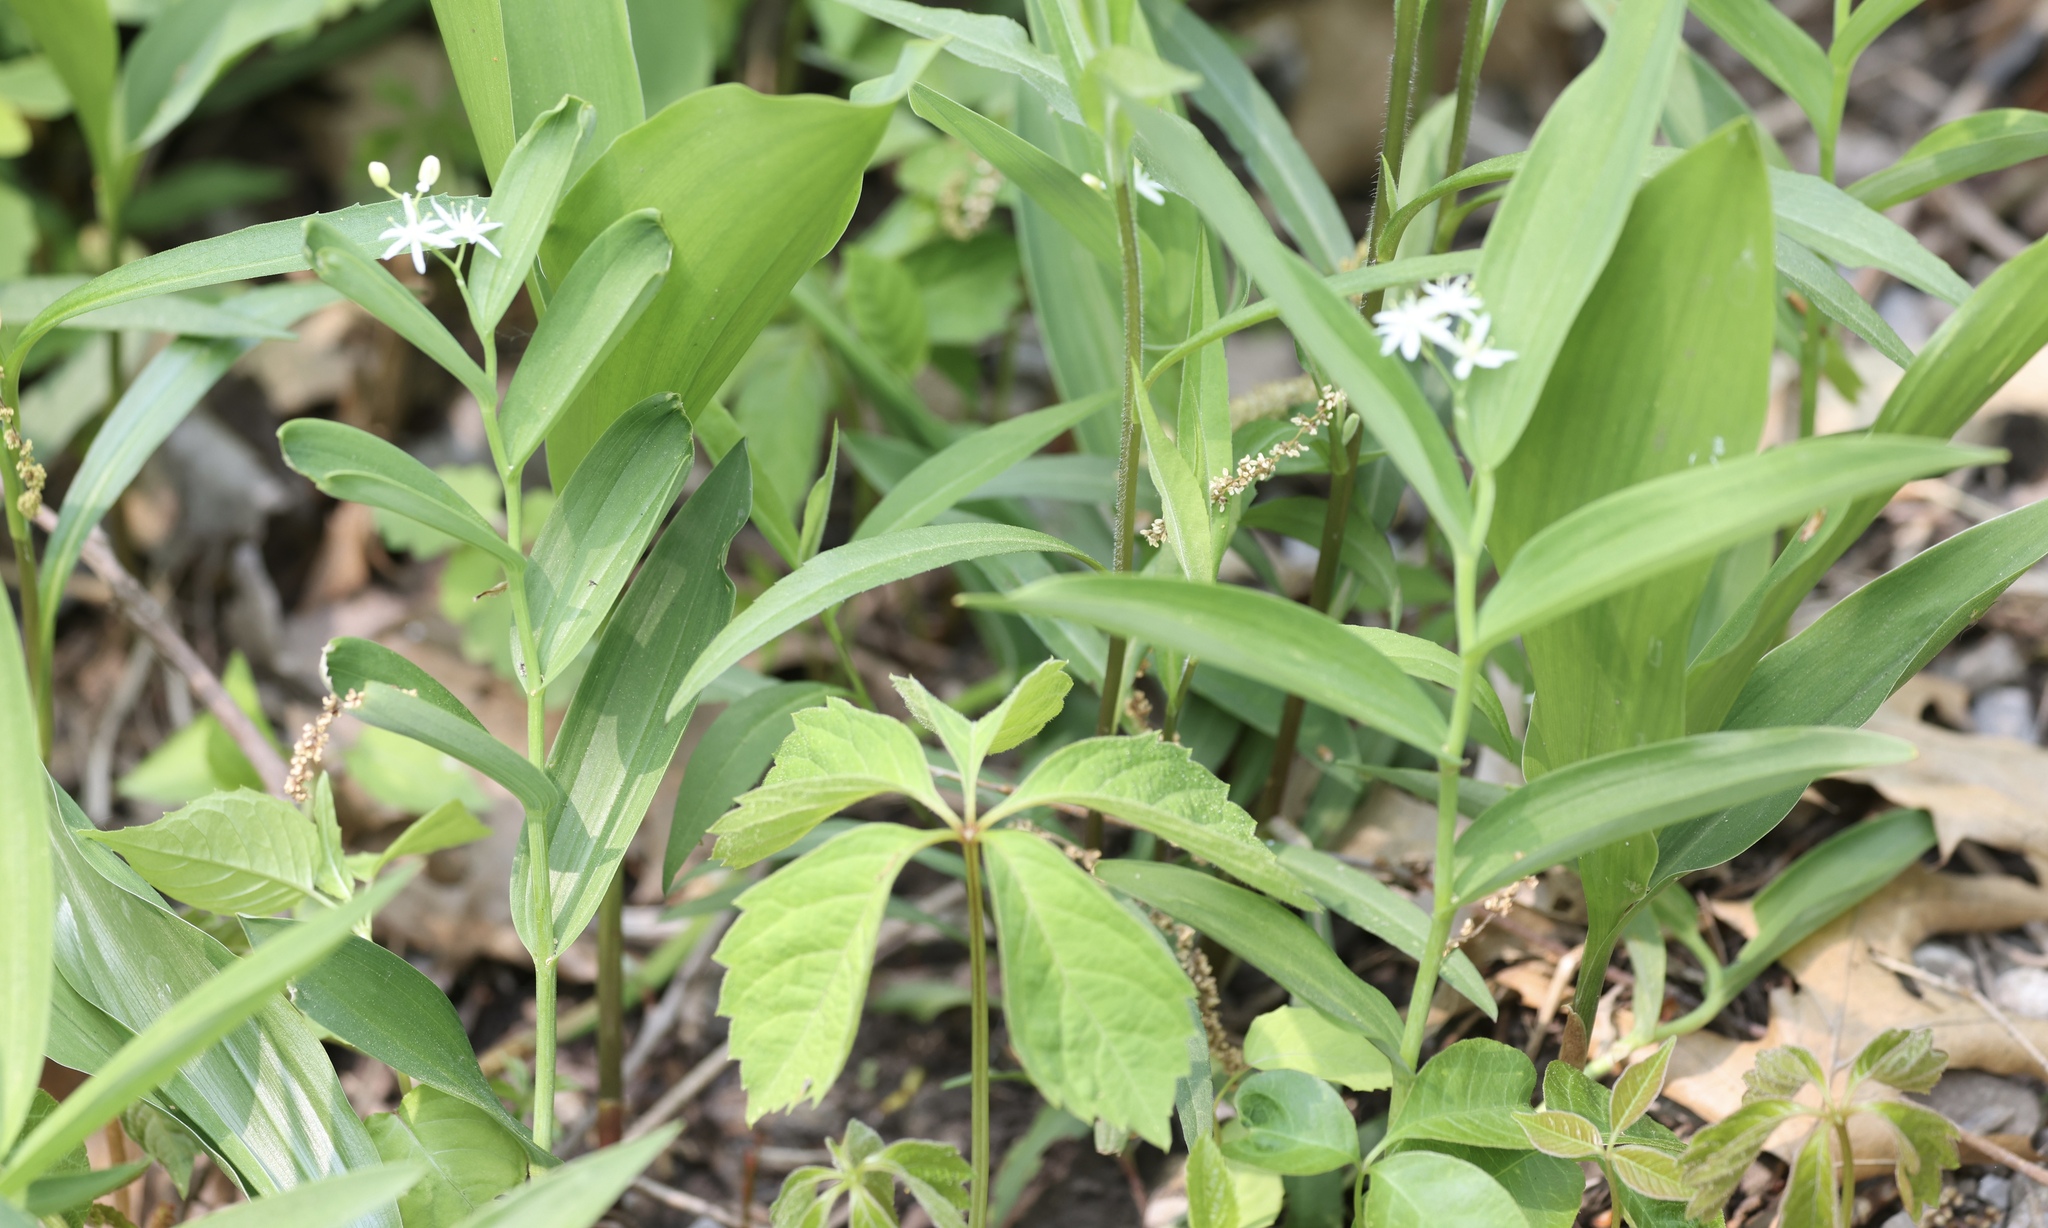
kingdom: Plantae
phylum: Tracheophyta
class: Liliopsida
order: Asparagales
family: Asparagaceae
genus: Maianthemum
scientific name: Maianthemum stellatum
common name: Little false solomon's seal
